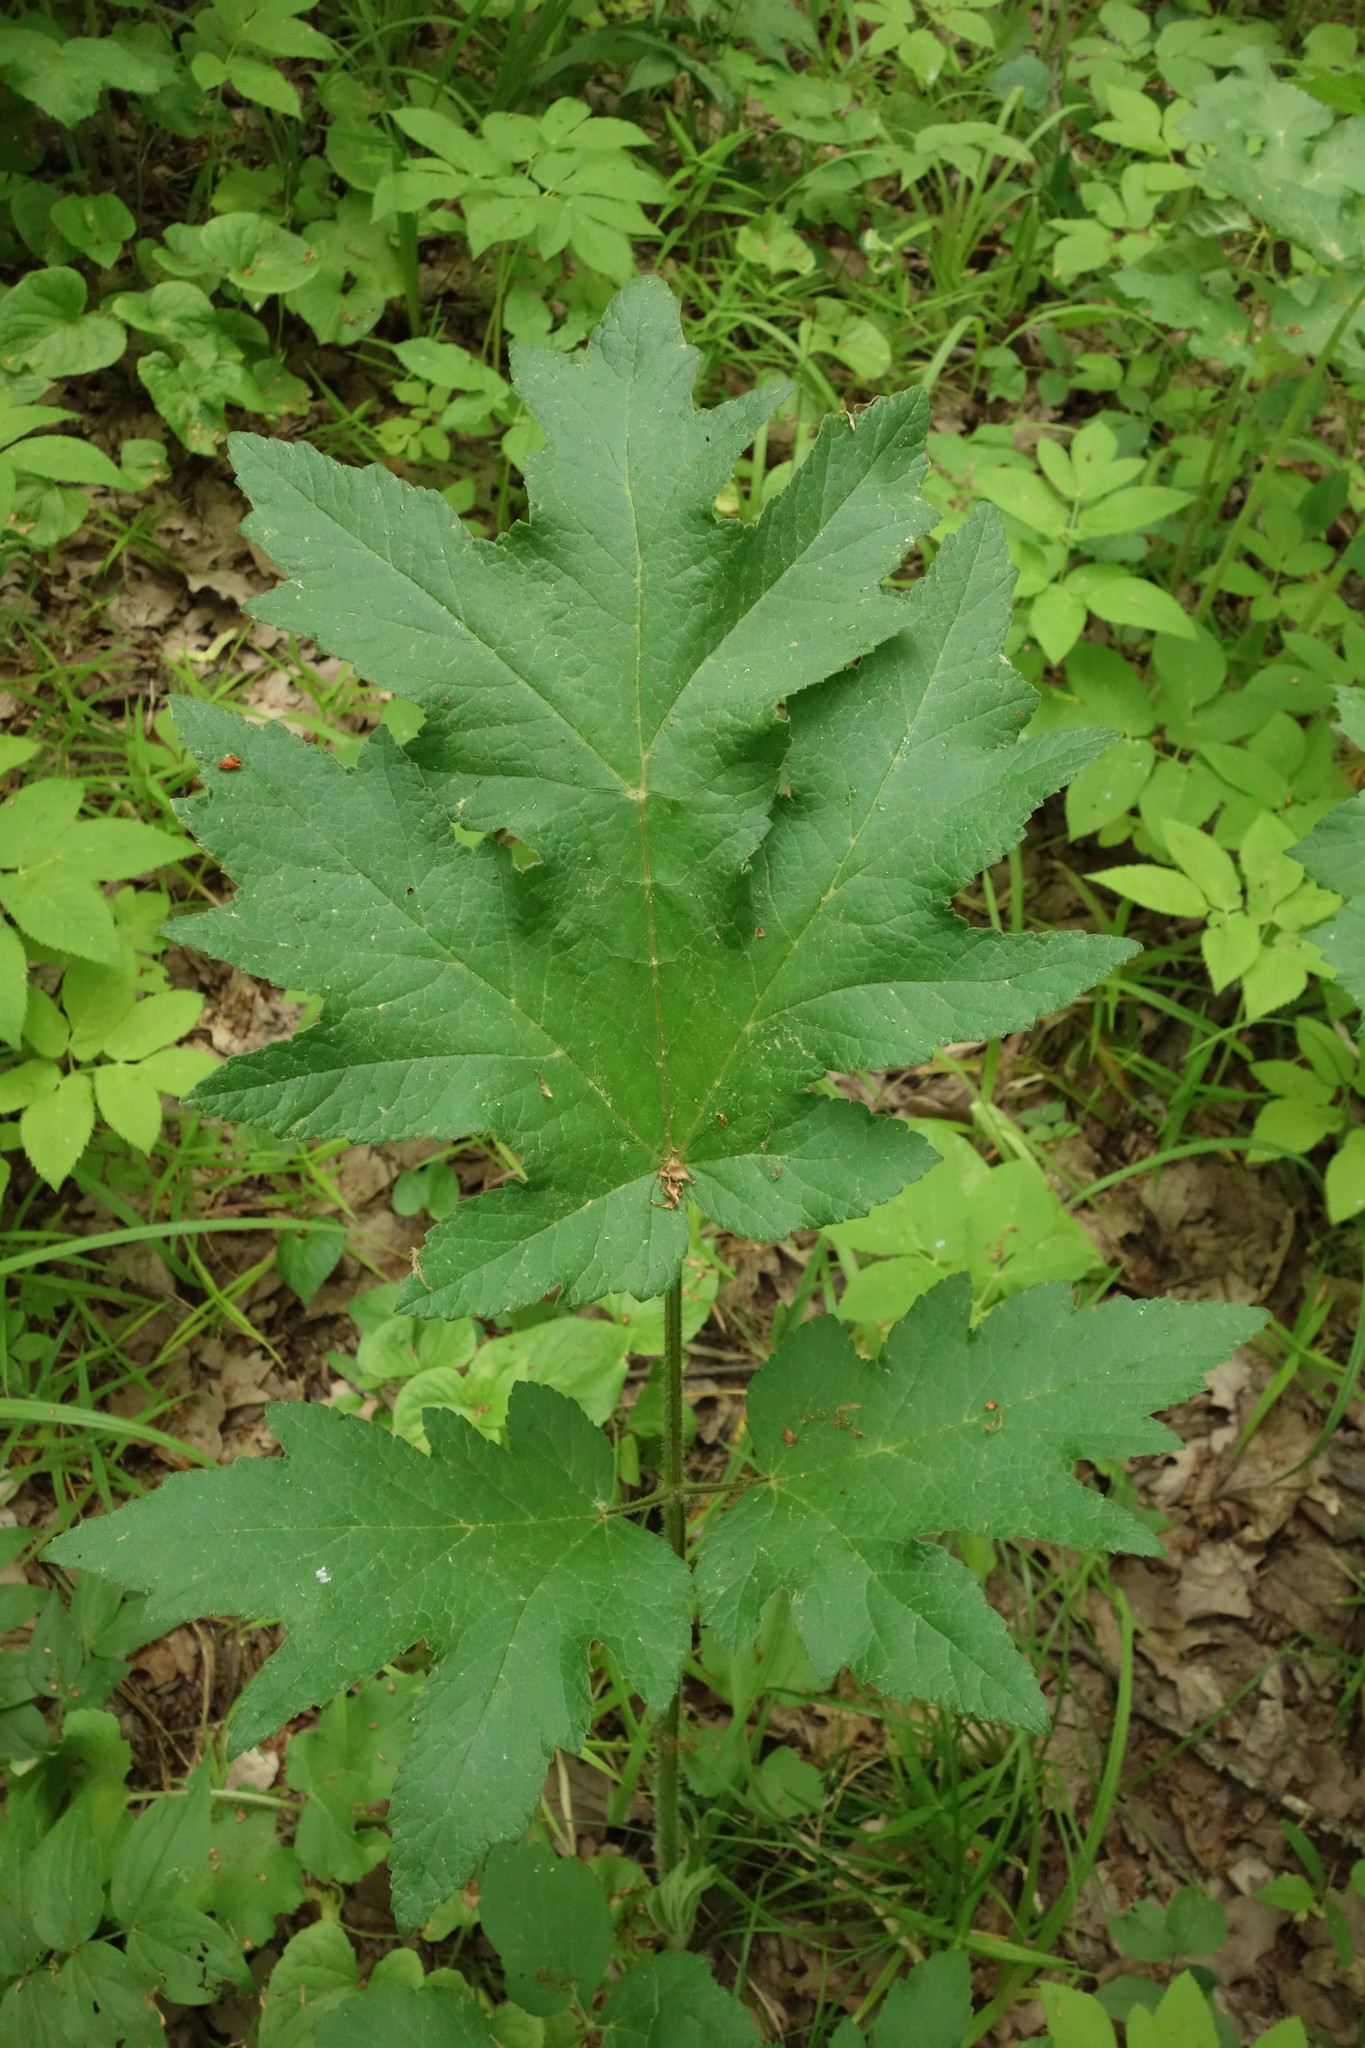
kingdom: Plantae
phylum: Tracheophyta
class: Magnoliopsida
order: Apiales
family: Apiaceae
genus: Heracleum
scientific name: Heracleum sphondylium
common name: Hogweed
